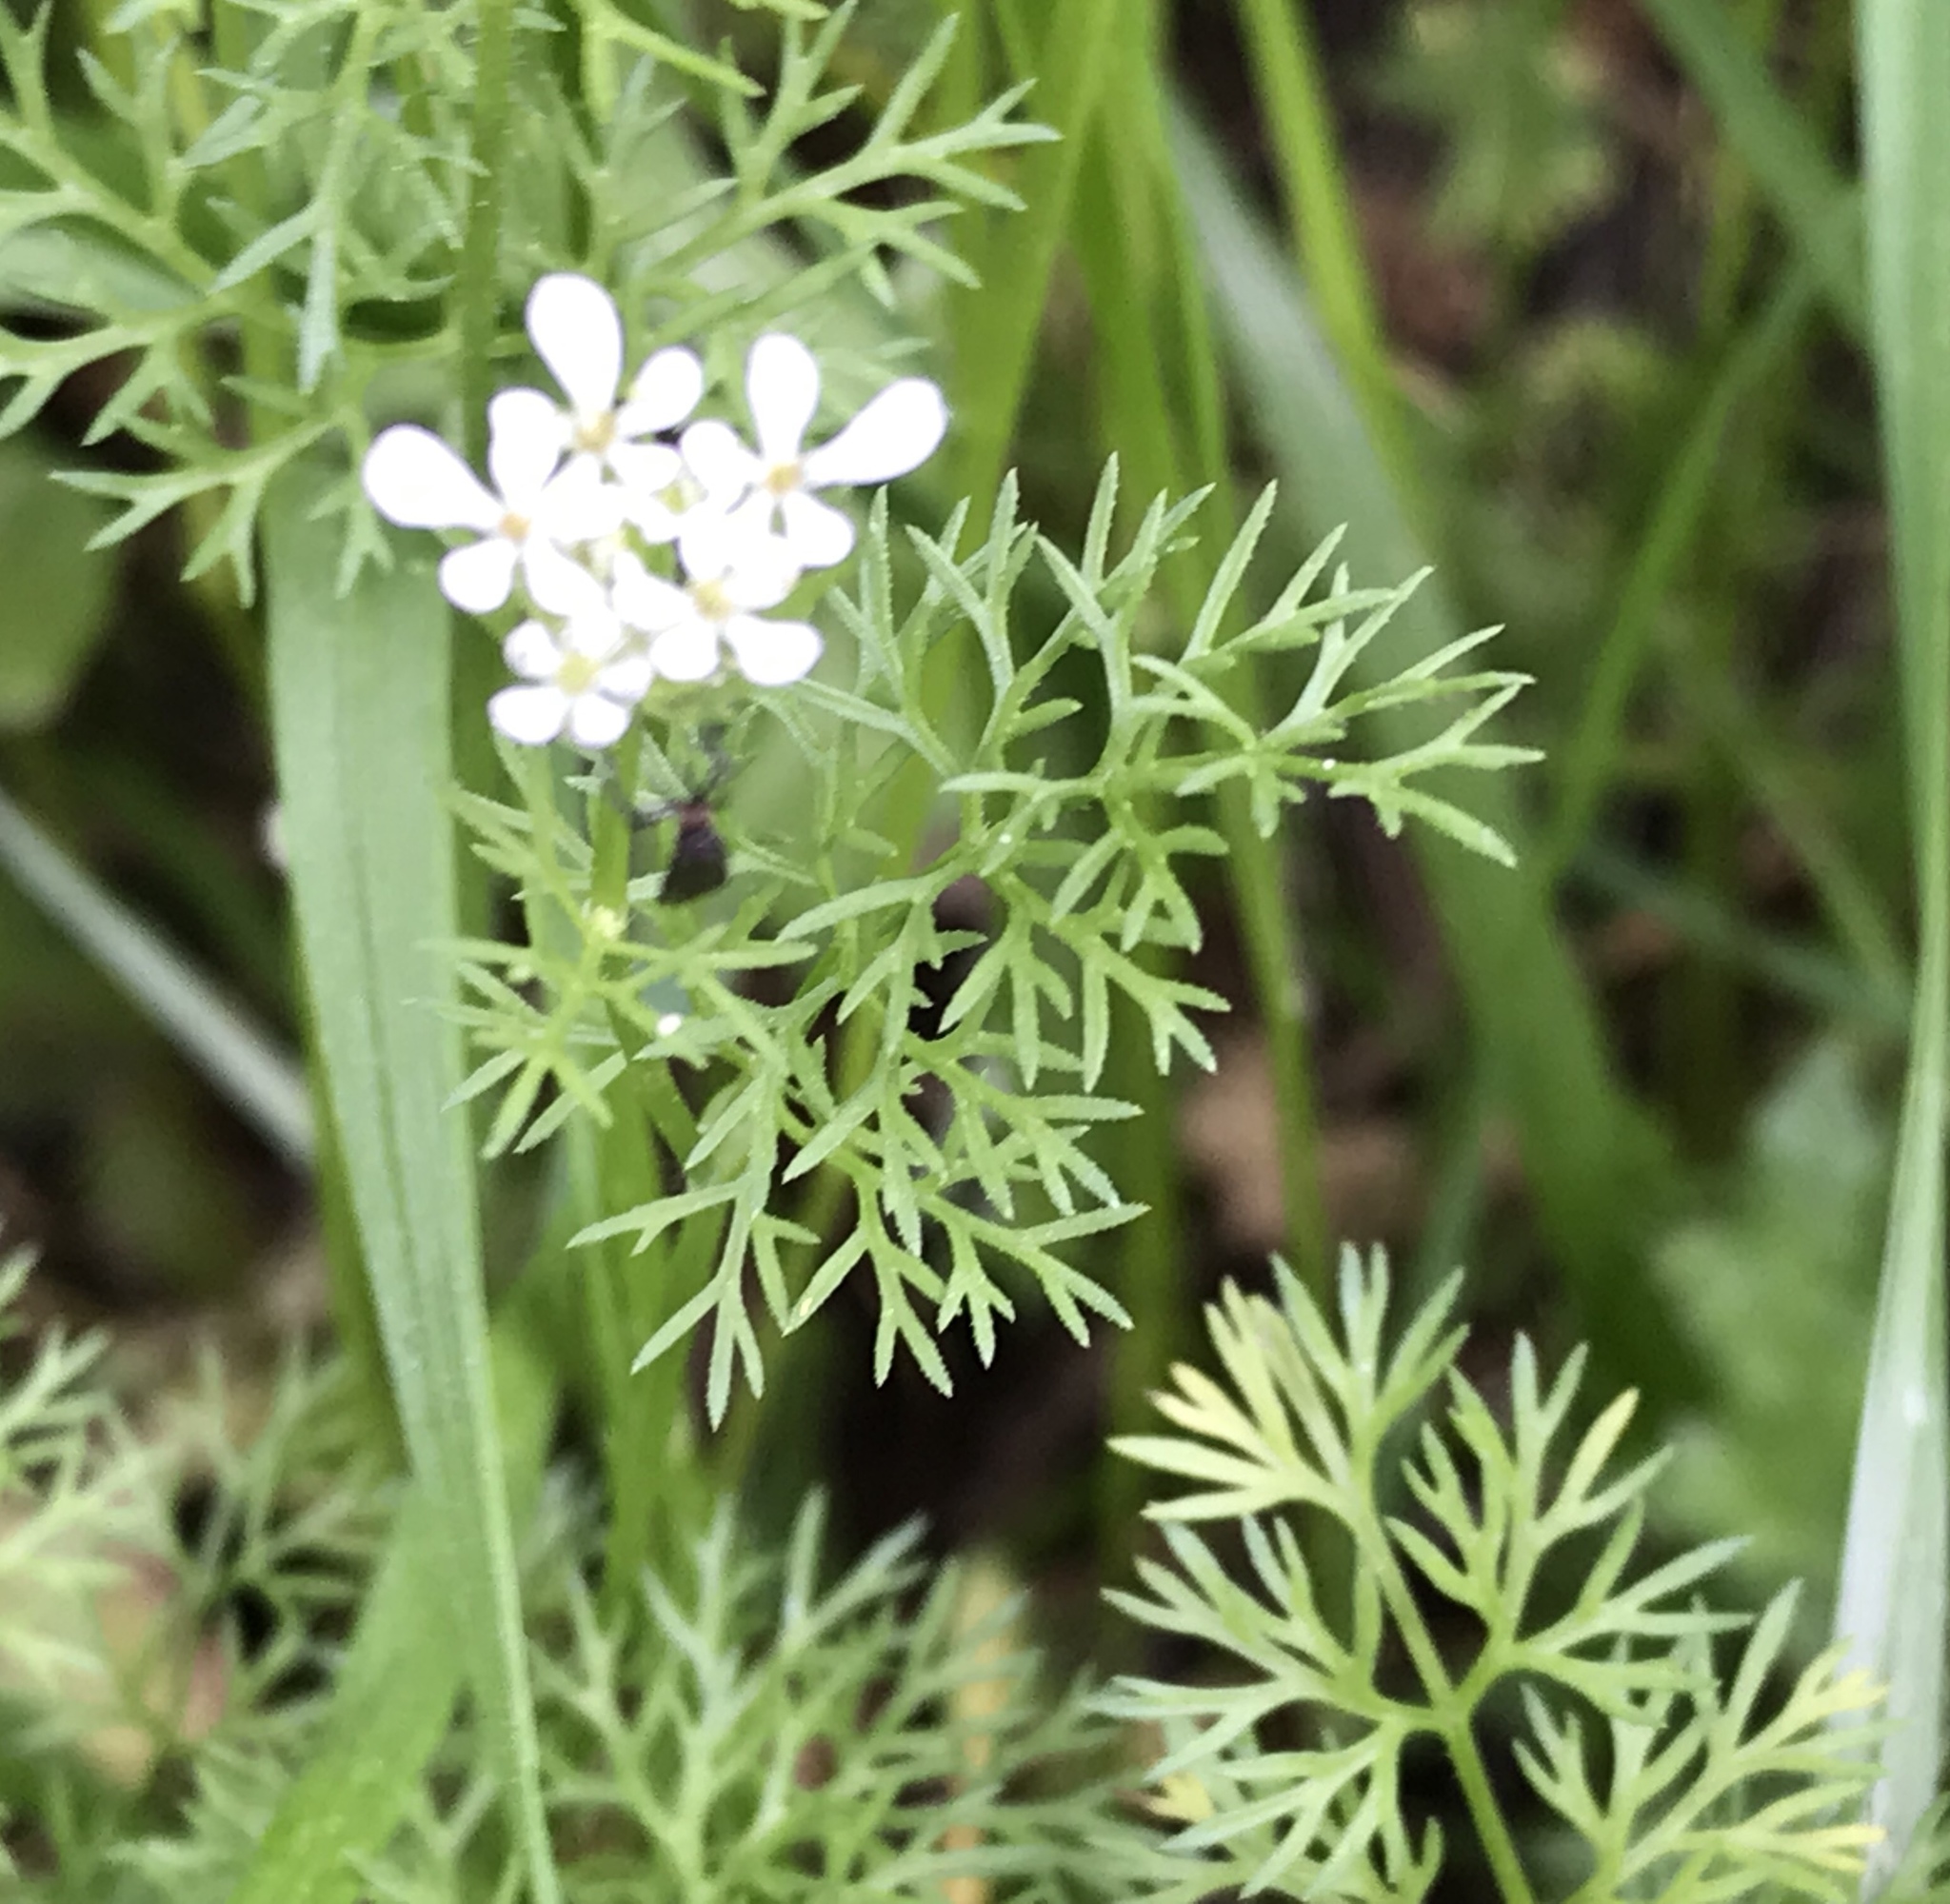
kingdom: Plantae
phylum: Tracheophyta
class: Magnoliopsida
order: Apiales
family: Apiaceae
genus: Scandix
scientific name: Scandix pecten-veneris
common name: Shepherd's-needle
